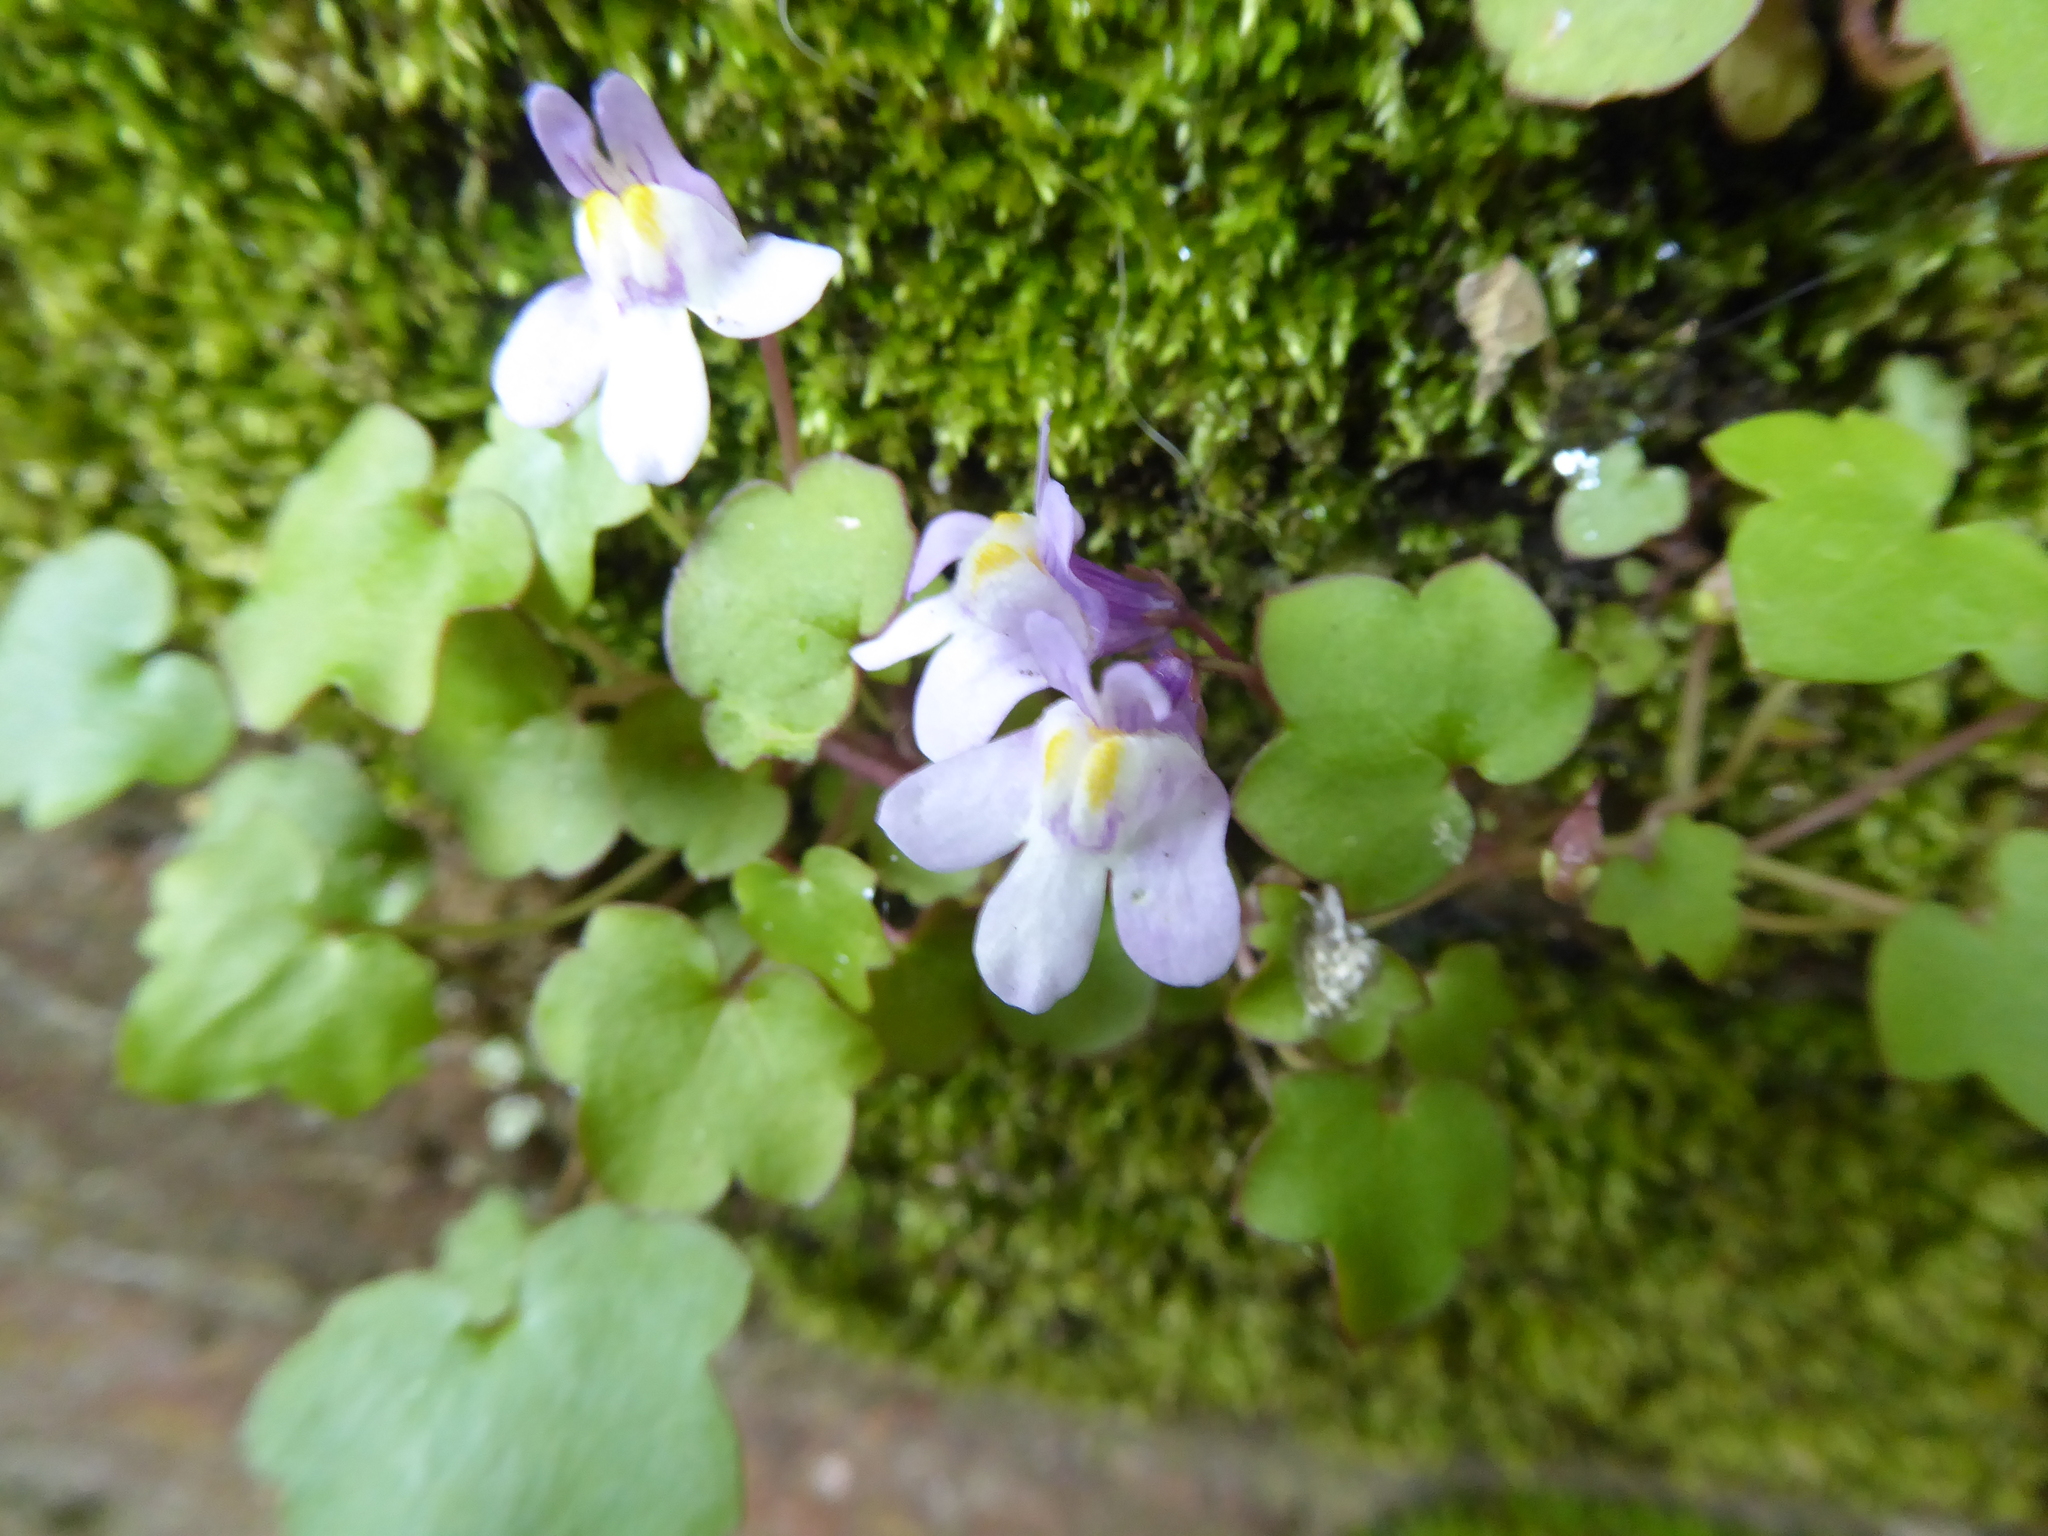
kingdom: Plantae
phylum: Tracheophyta
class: Magnoliopsida
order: Lamiales
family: Plantaginaceae
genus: Cymbalaria
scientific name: Cymbalaria muralis
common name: Ivy-leaved toadflax
